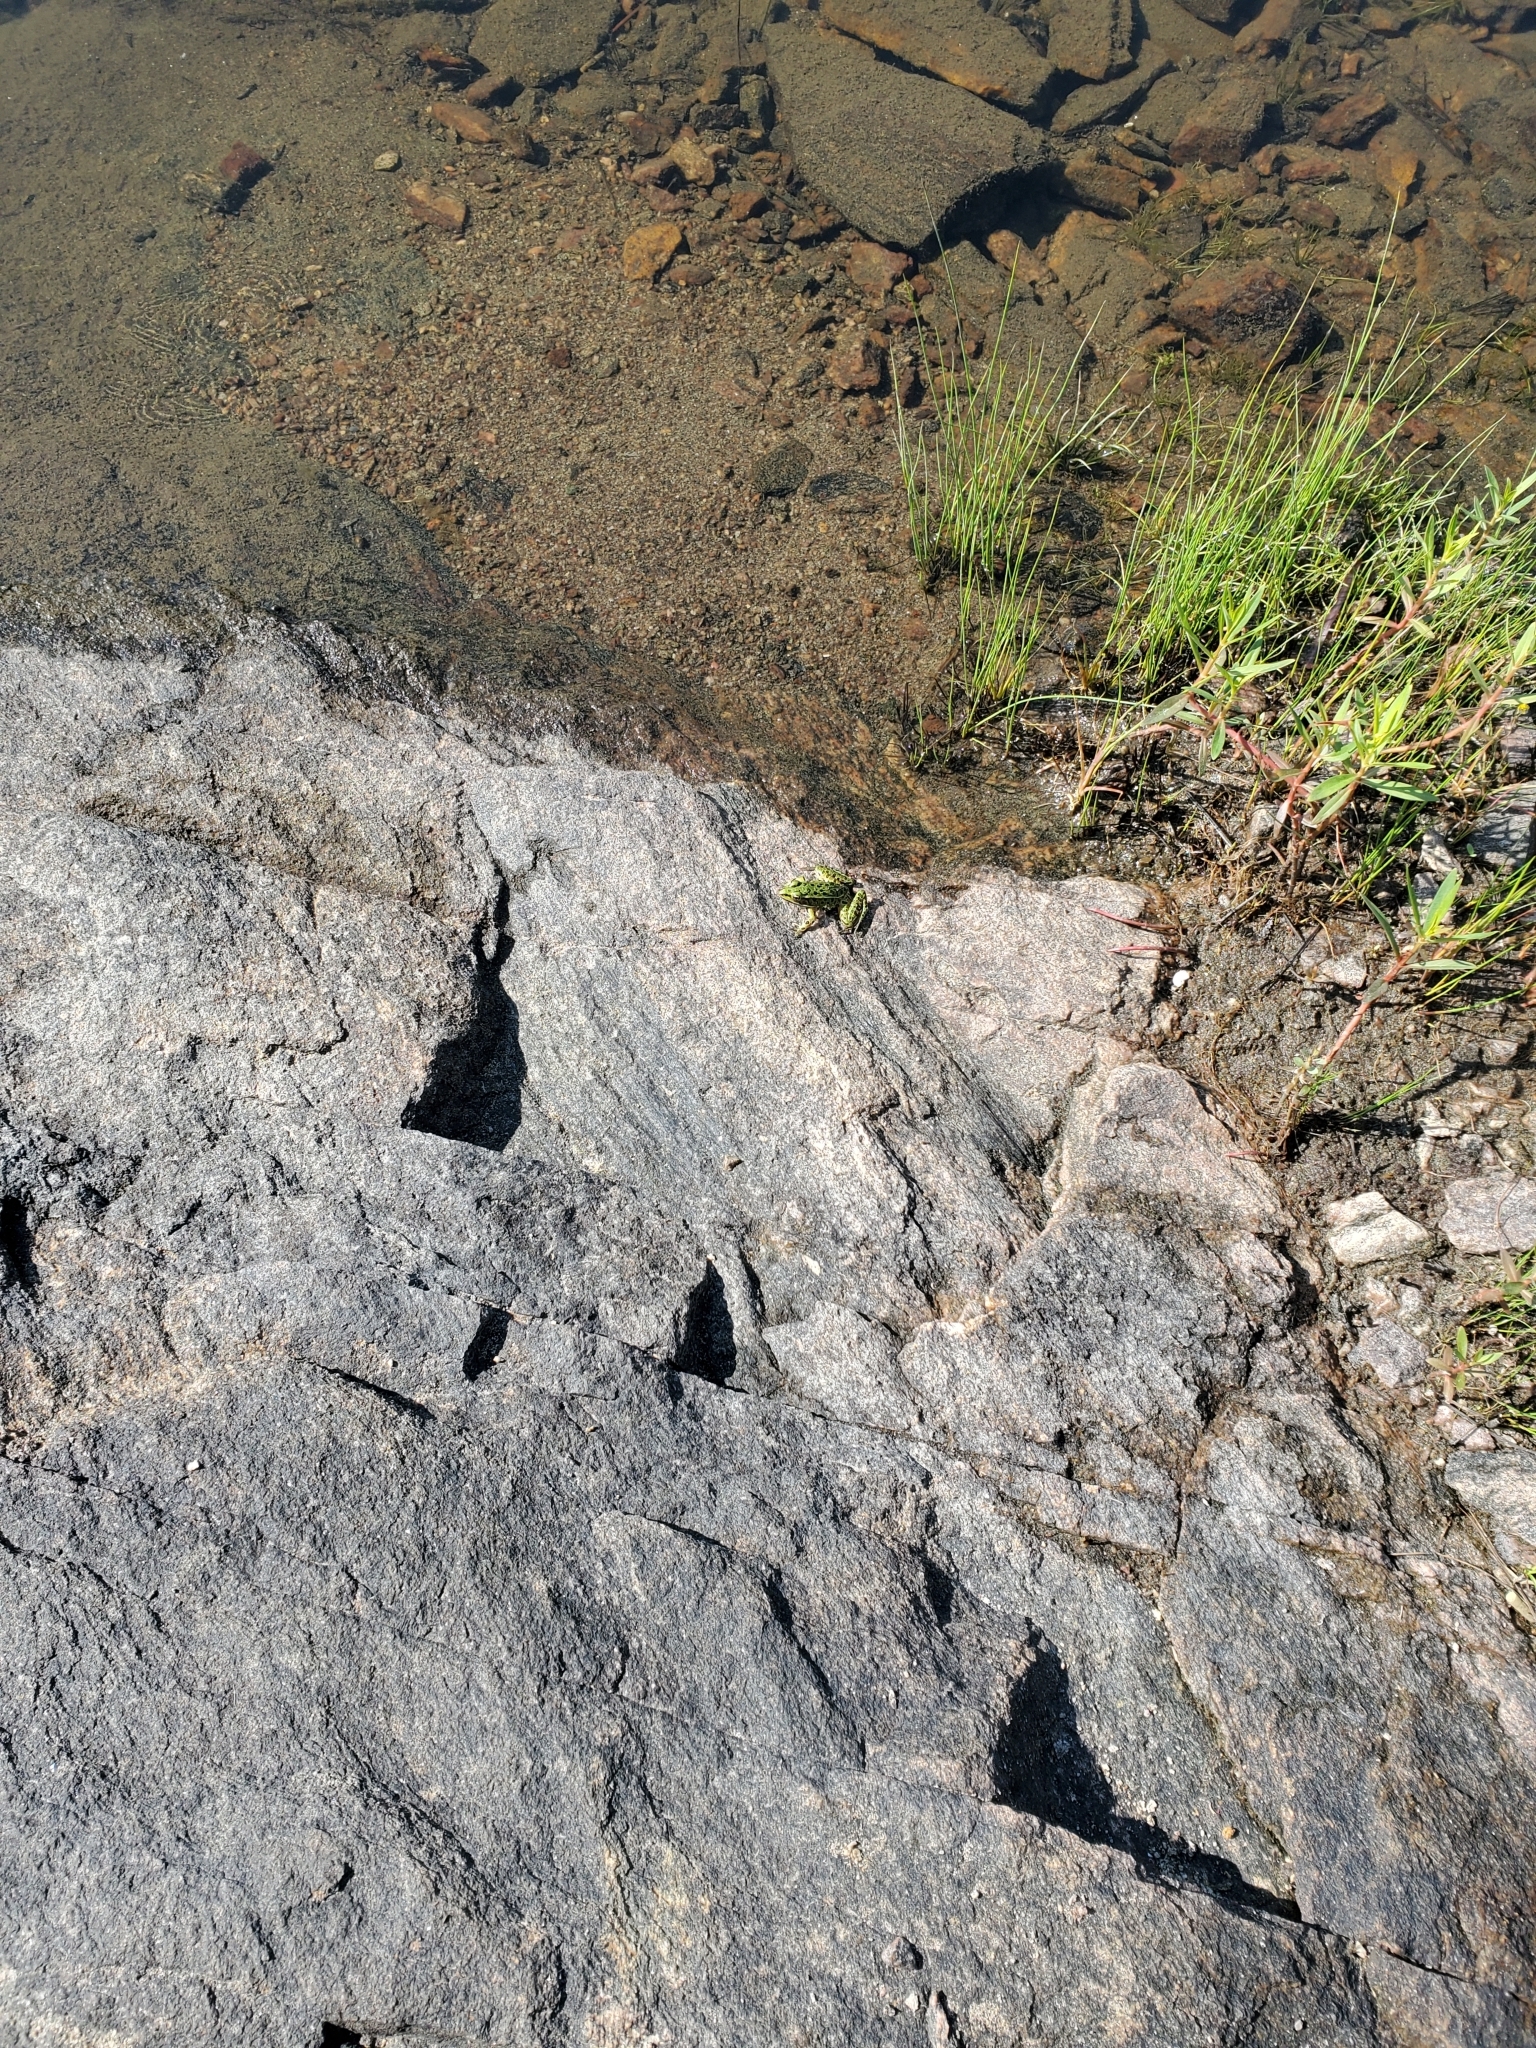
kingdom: Animalia
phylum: Chordata
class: Amphibia
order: Anura
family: Ranidae
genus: Lithobates
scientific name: Lithobates pipiens
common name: Northern leopard frog
